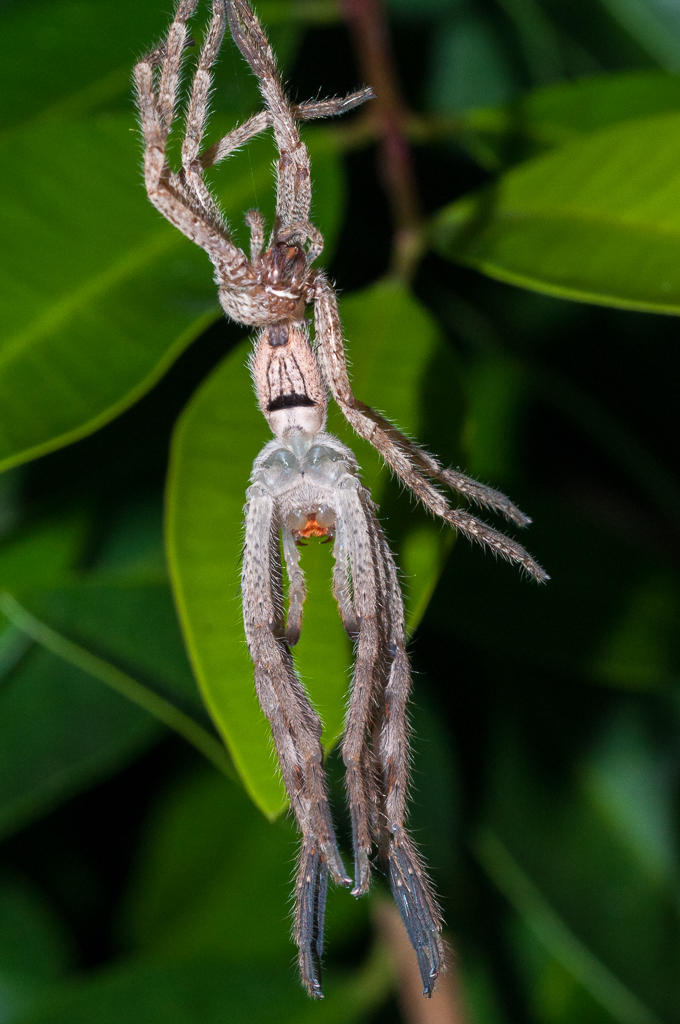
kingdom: Animalia
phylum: Arthropoda
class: Arachnida
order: Araneae
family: Sparassidae
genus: Palystes
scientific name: Palystes superciliosus
